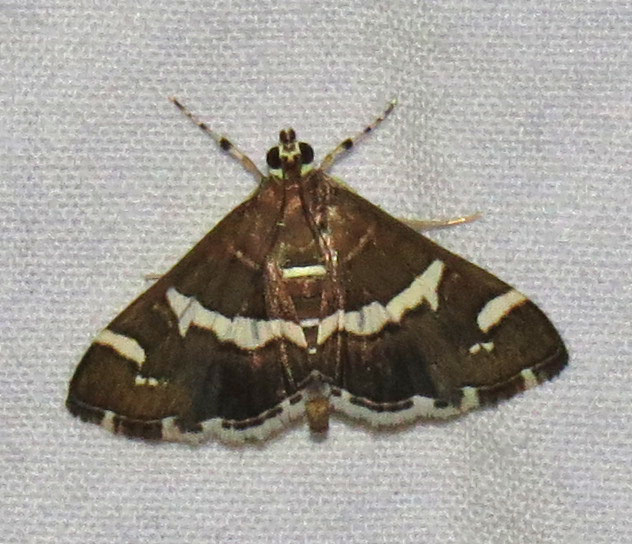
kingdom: Animalia
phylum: Arthropoda
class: Insecta
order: Lepidoptera
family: Crambidae
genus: Spoladea
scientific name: Spoladea recurvalis
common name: Beet webworm moth
